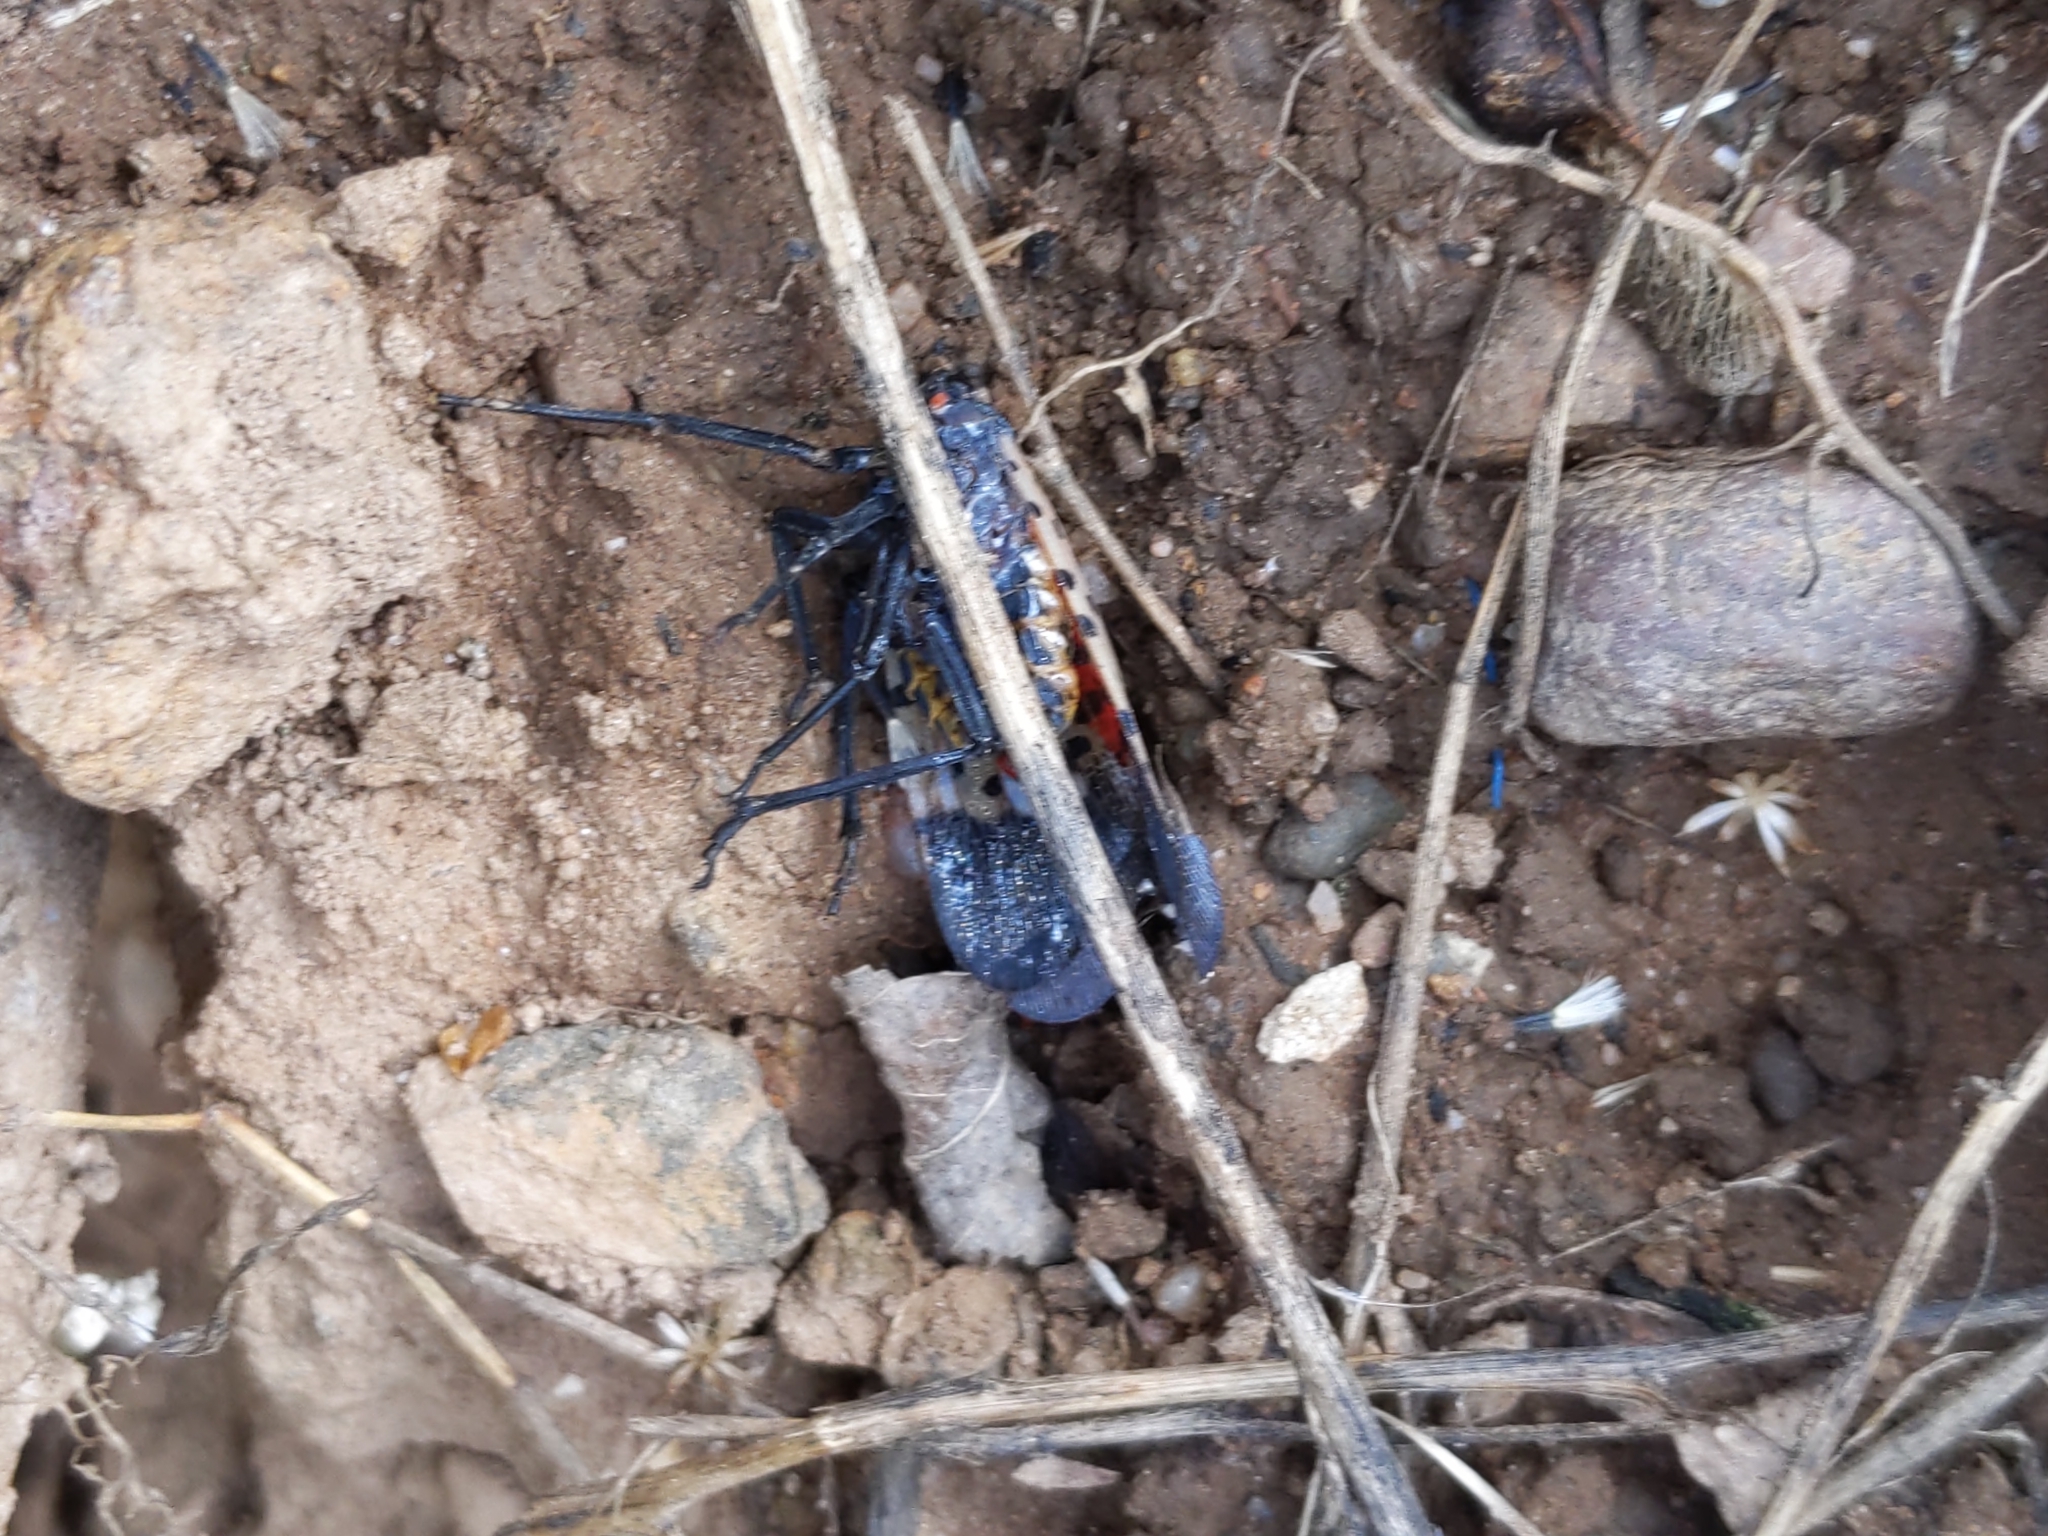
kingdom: Animalia
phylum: Arthropoda
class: Insecta
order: Hemiptera
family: Fulgoridae
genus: Lycorma
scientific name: Lycorma delicatula
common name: Spotted lanternfly
